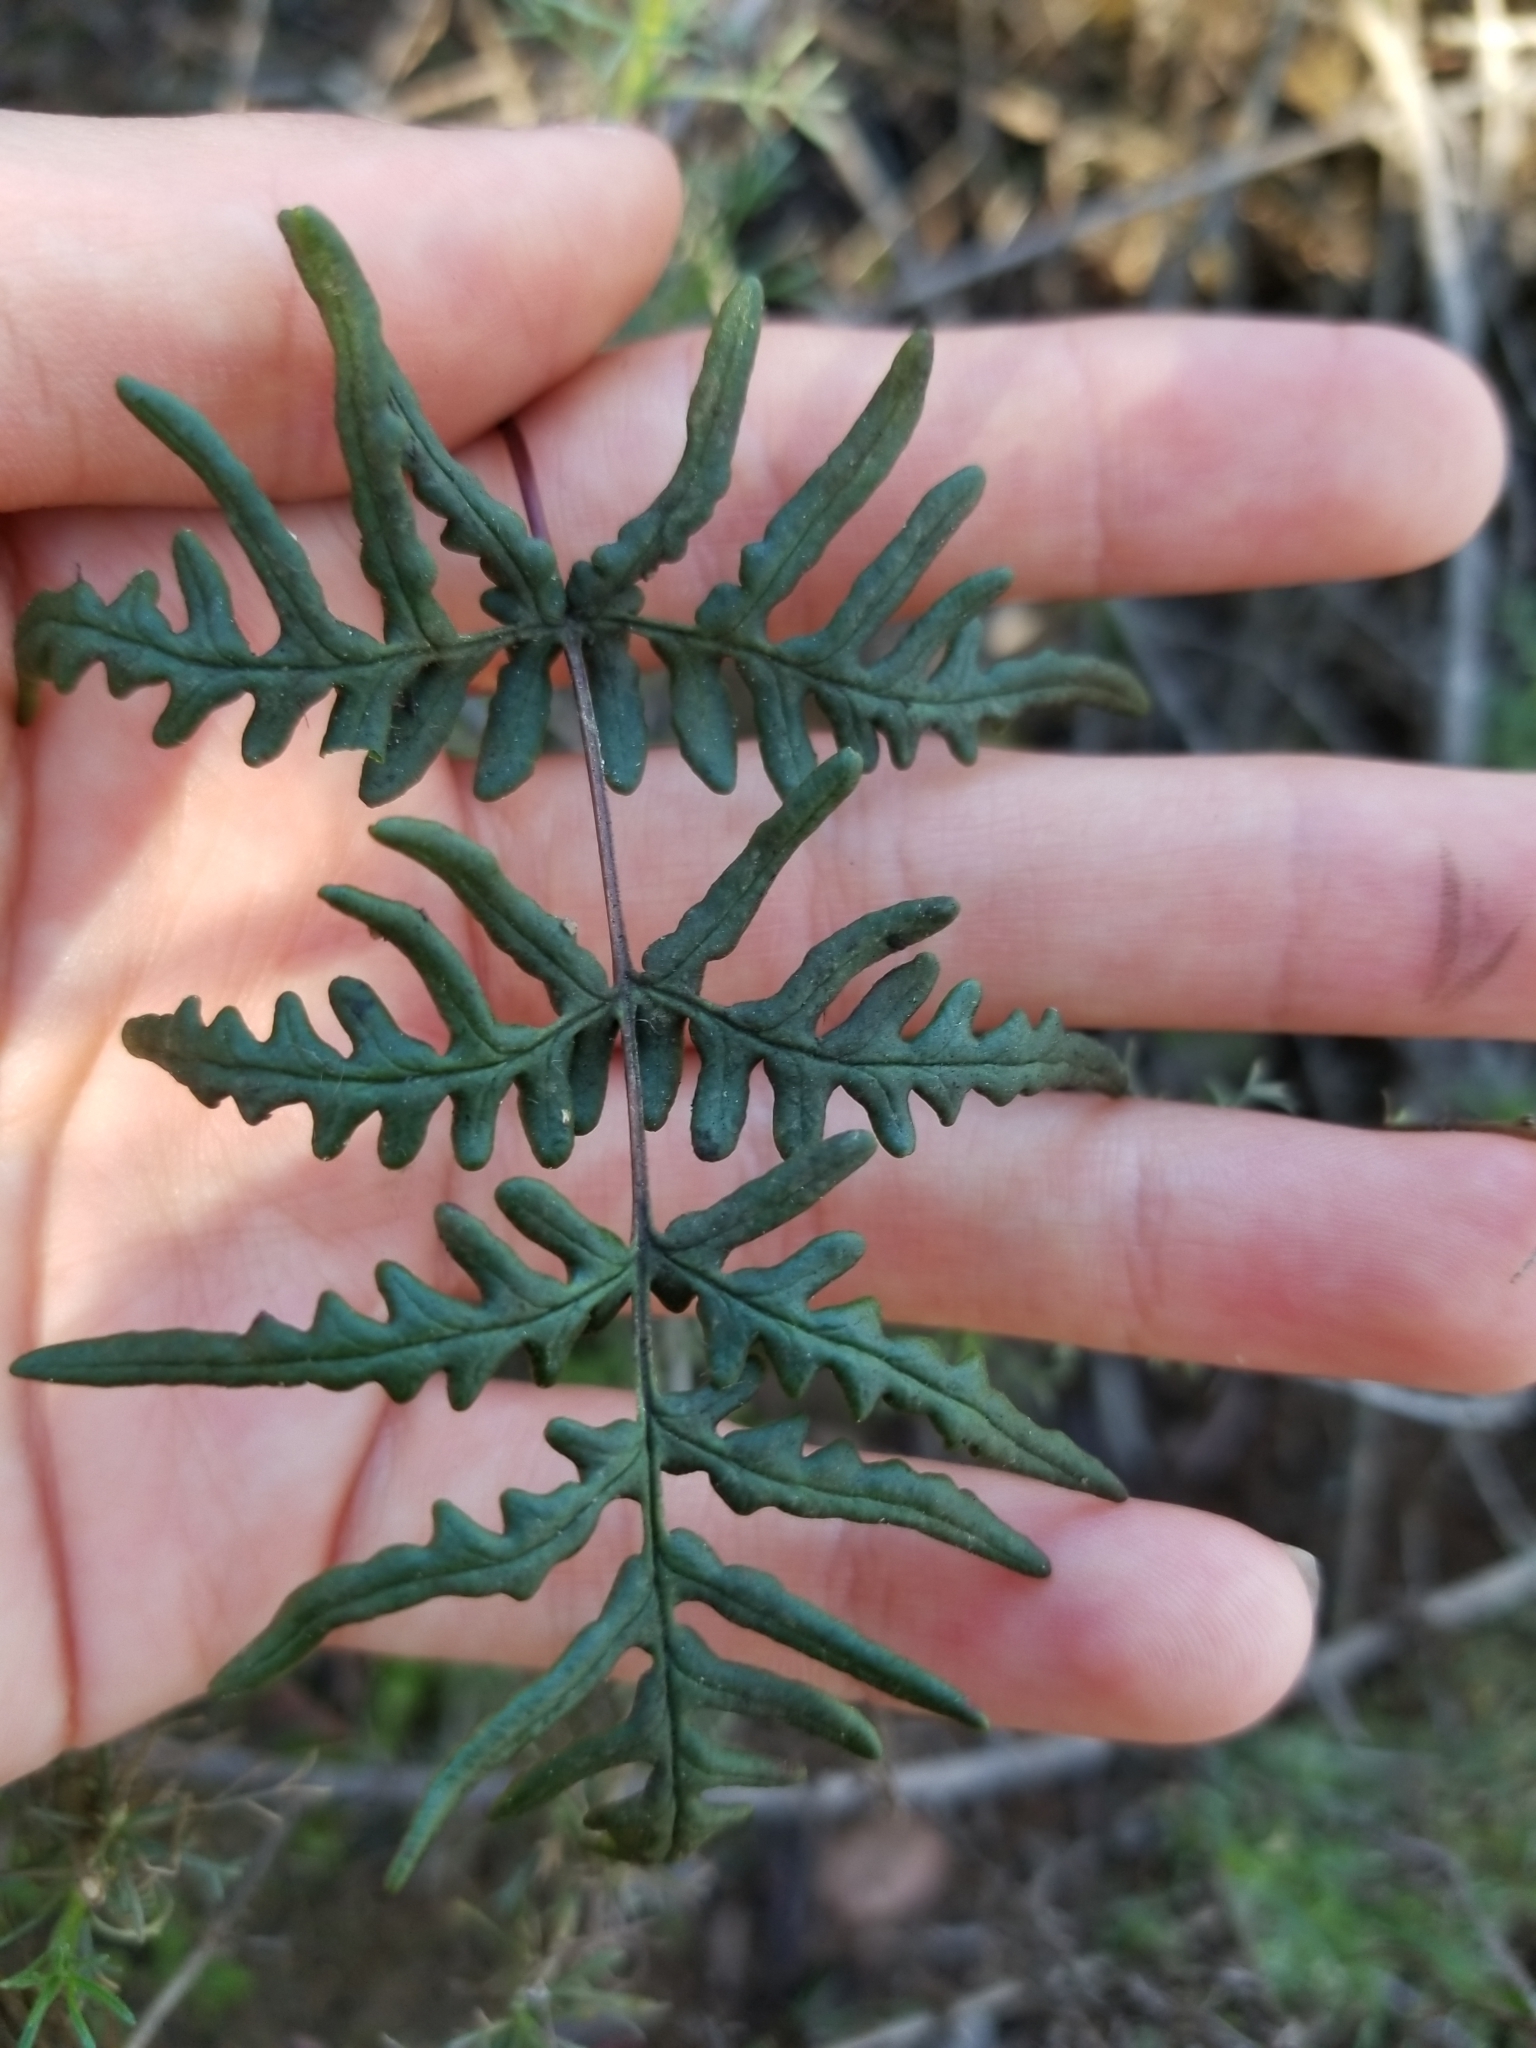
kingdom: Plantae
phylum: Tracheophyta
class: Polypodiopsida
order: Polypodiales
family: Pteridaceae
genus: Pentagramma
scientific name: Pentagramma viscosa
